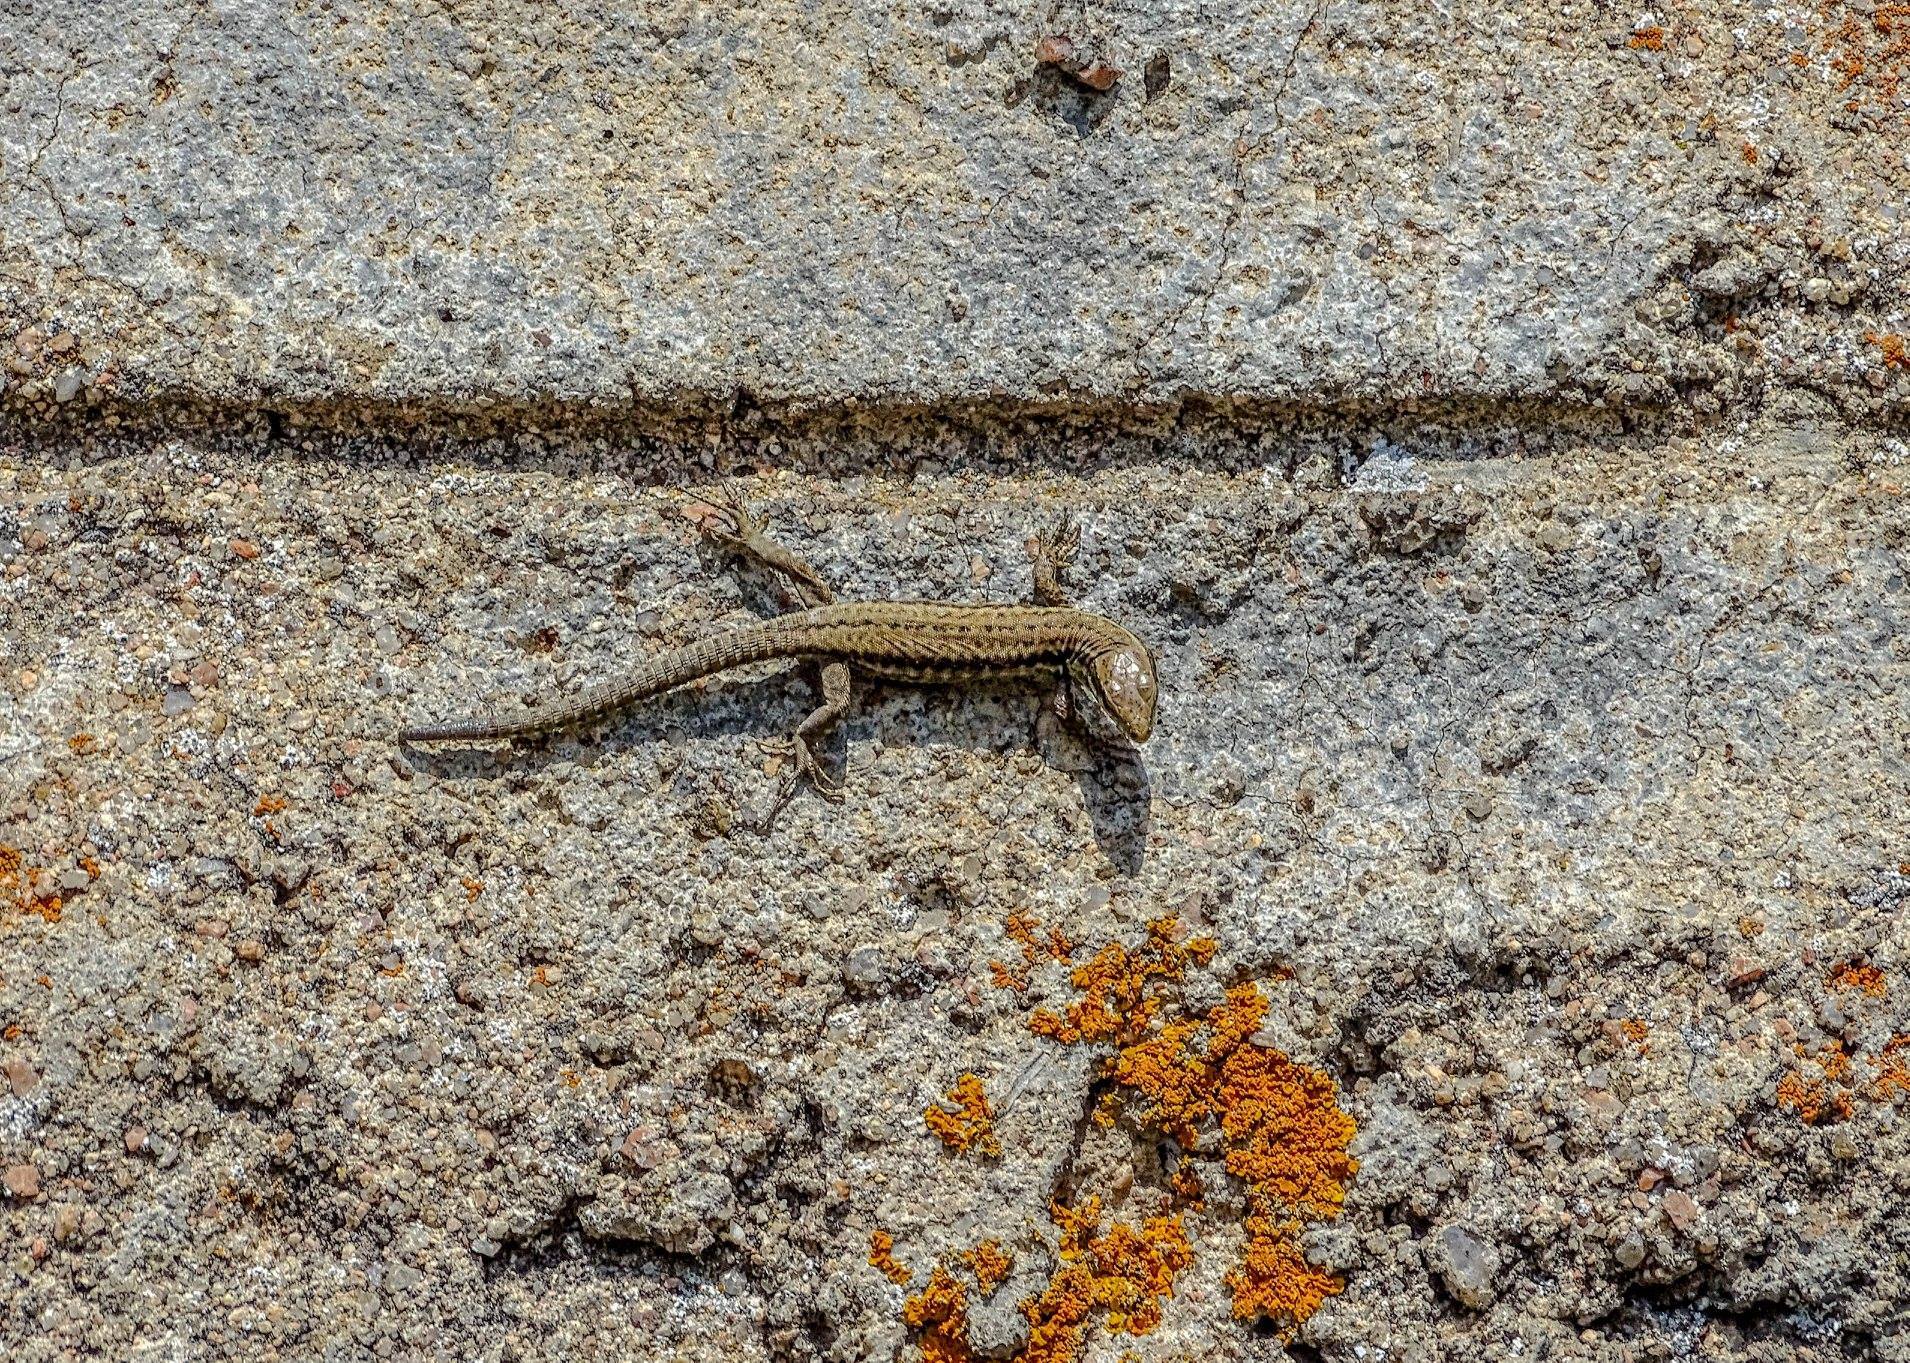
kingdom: Animalia
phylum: Chordata
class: Squamata
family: Lacertidae
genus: Podarcis
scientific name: Podarcis muralis
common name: Common wall lizard
